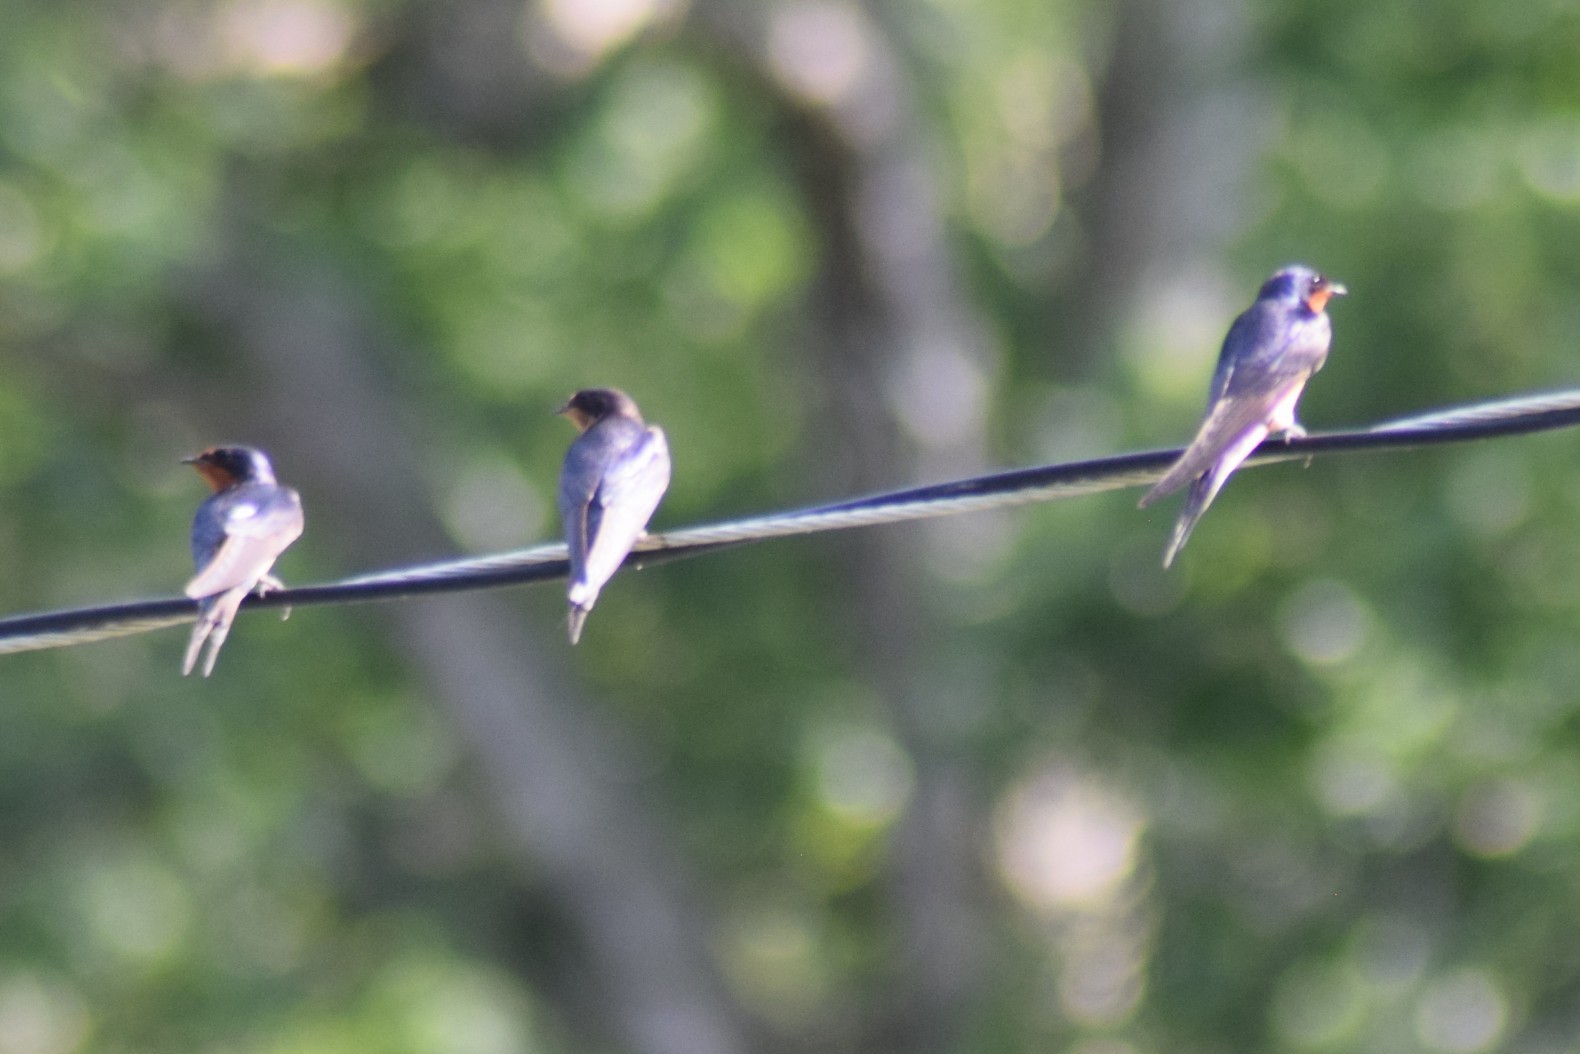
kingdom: Animalia
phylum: Chordata
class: Aves
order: Passeriformes
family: Hirundinidae
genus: Hirundo
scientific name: Hirundo rustica
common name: Barn swallow
